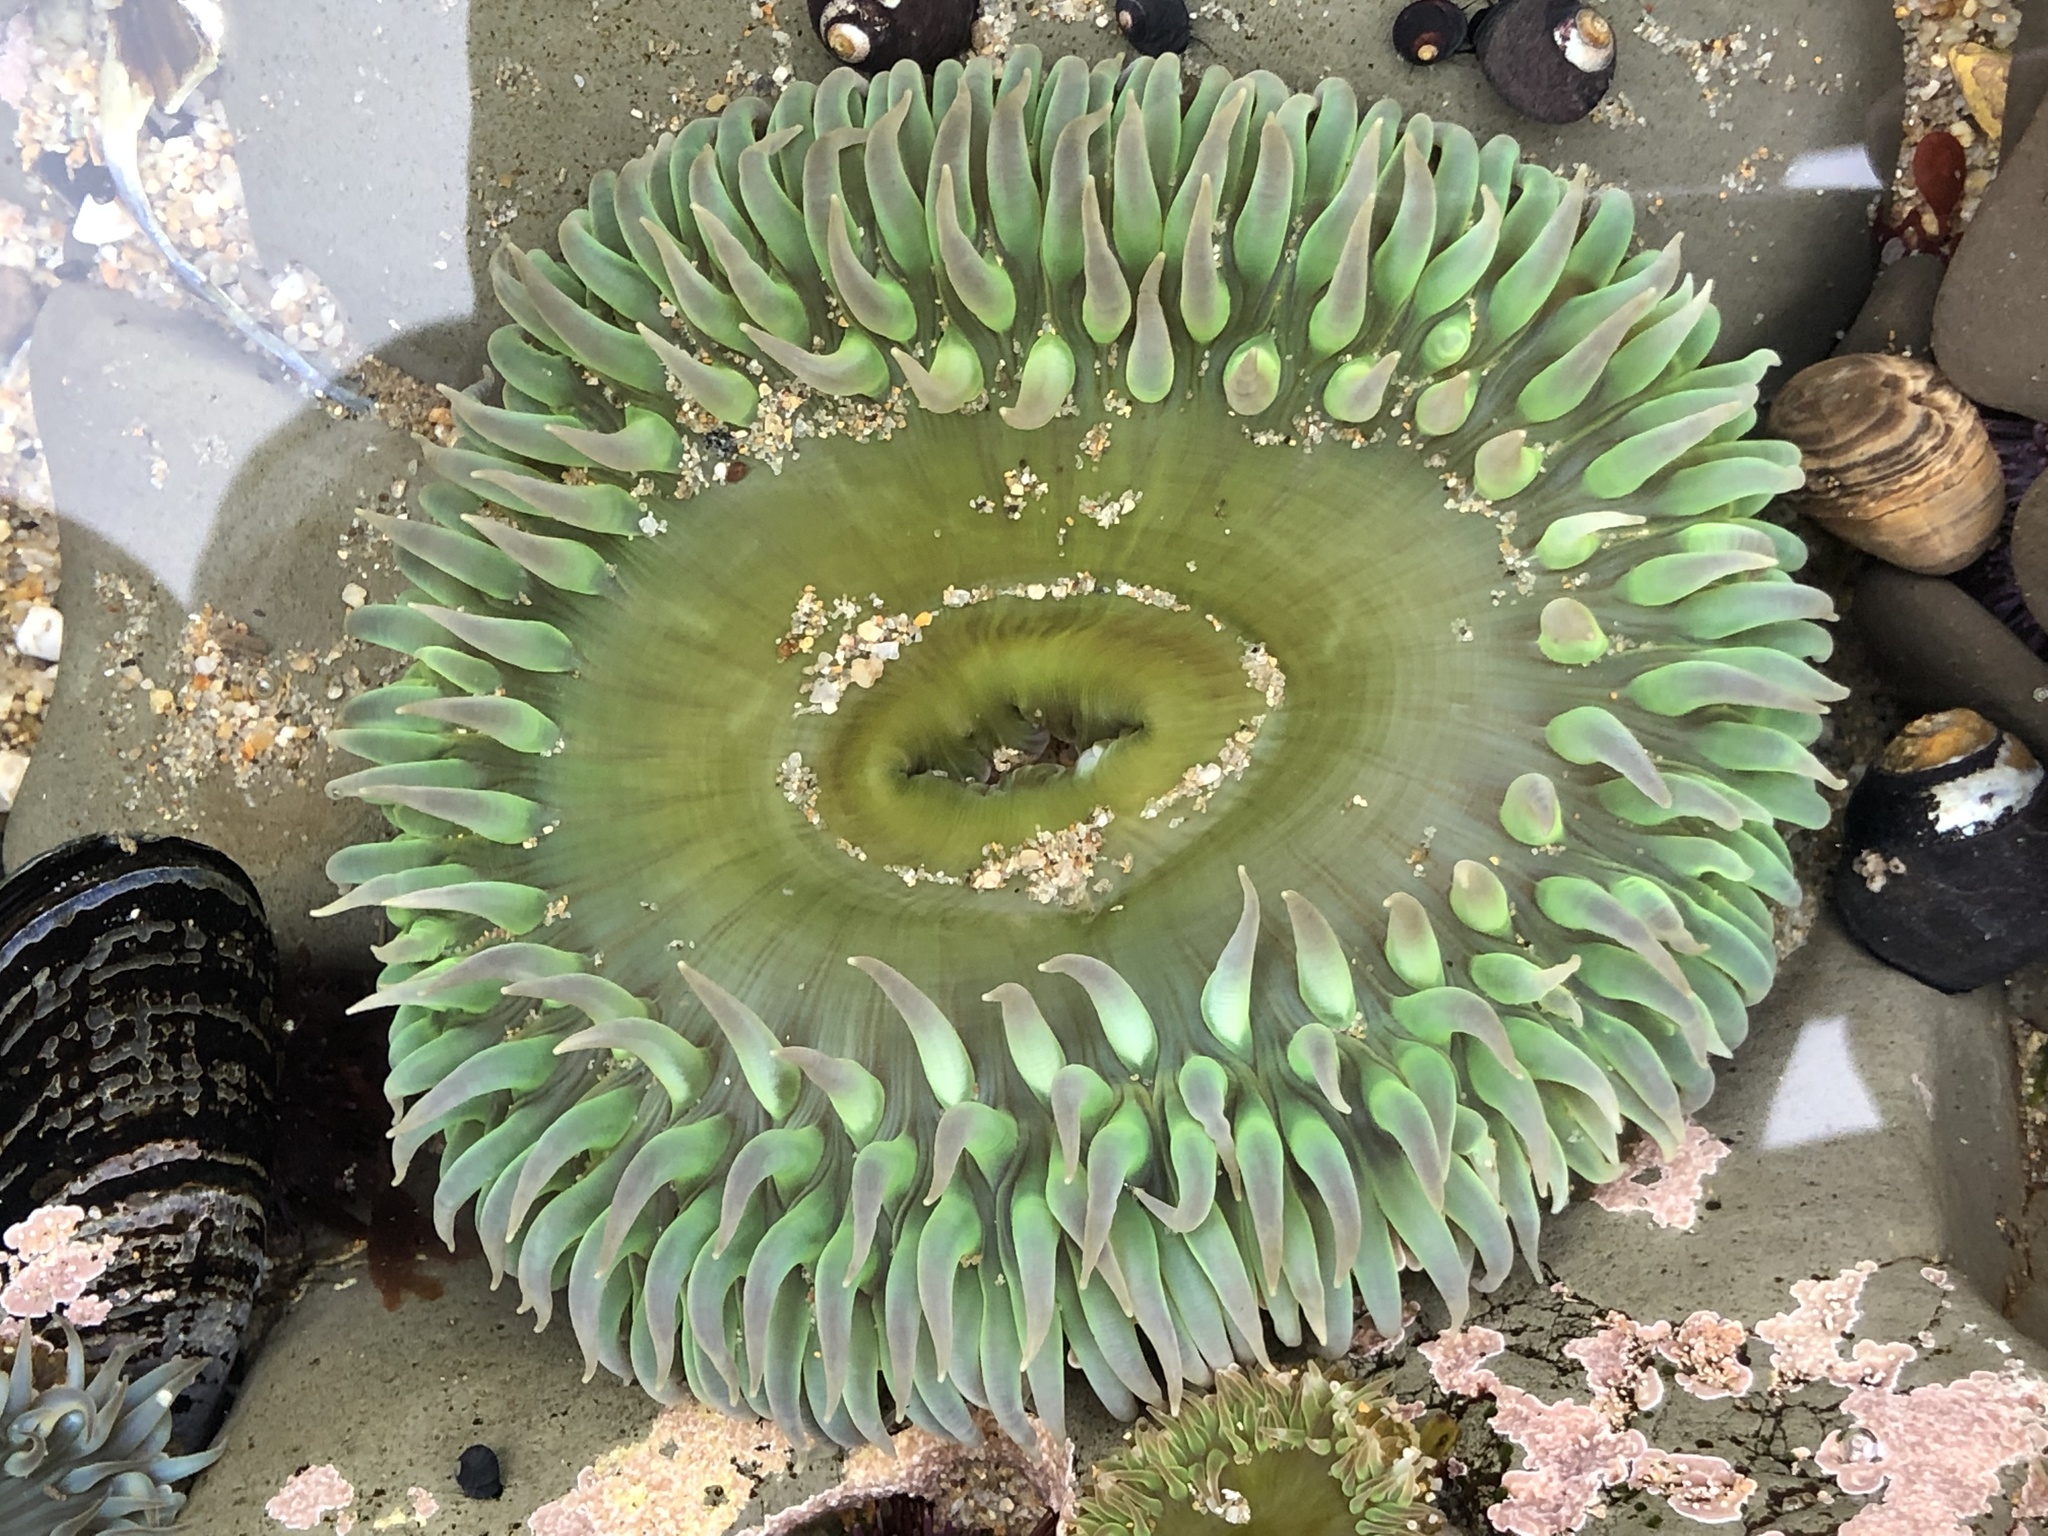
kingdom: Animalia
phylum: Cnidaria
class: Anthozoa
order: Actiniaria
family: Actiniidae
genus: Anthopleura
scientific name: Anthopleura xanthogrammica
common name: Giant green anemone
